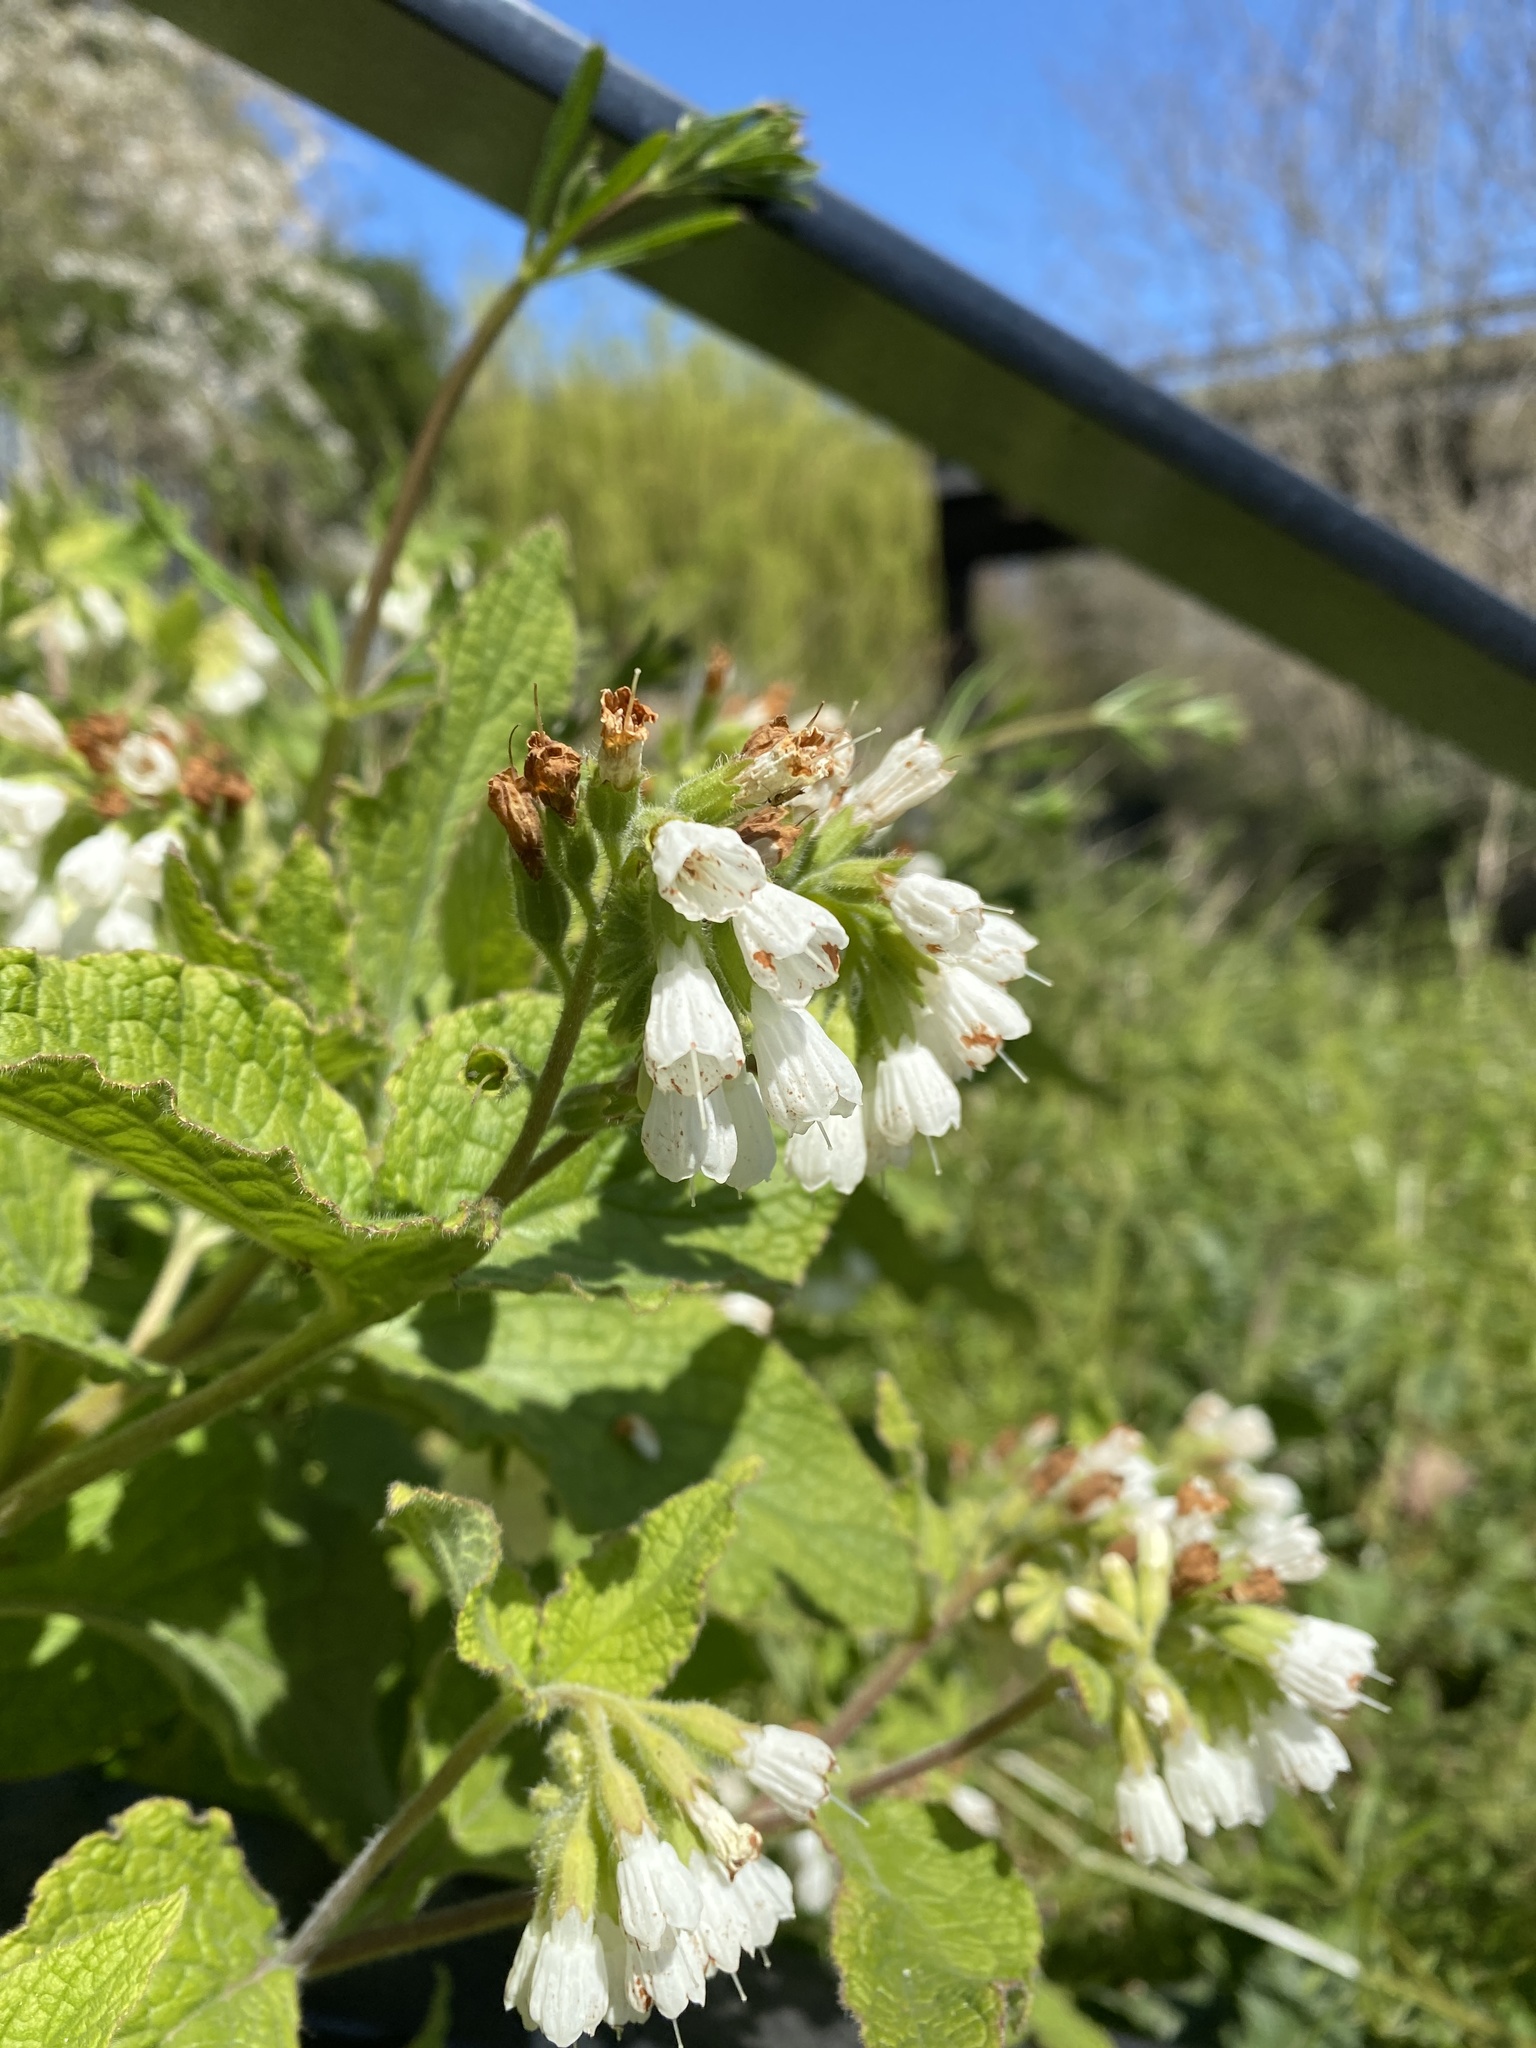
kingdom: Plantae
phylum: Tracheophyta
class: Magnoliopsida
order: Boraginales
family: Boraginaceae
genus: Symphytum
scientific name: Symphytum orientale
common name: White comfrey
